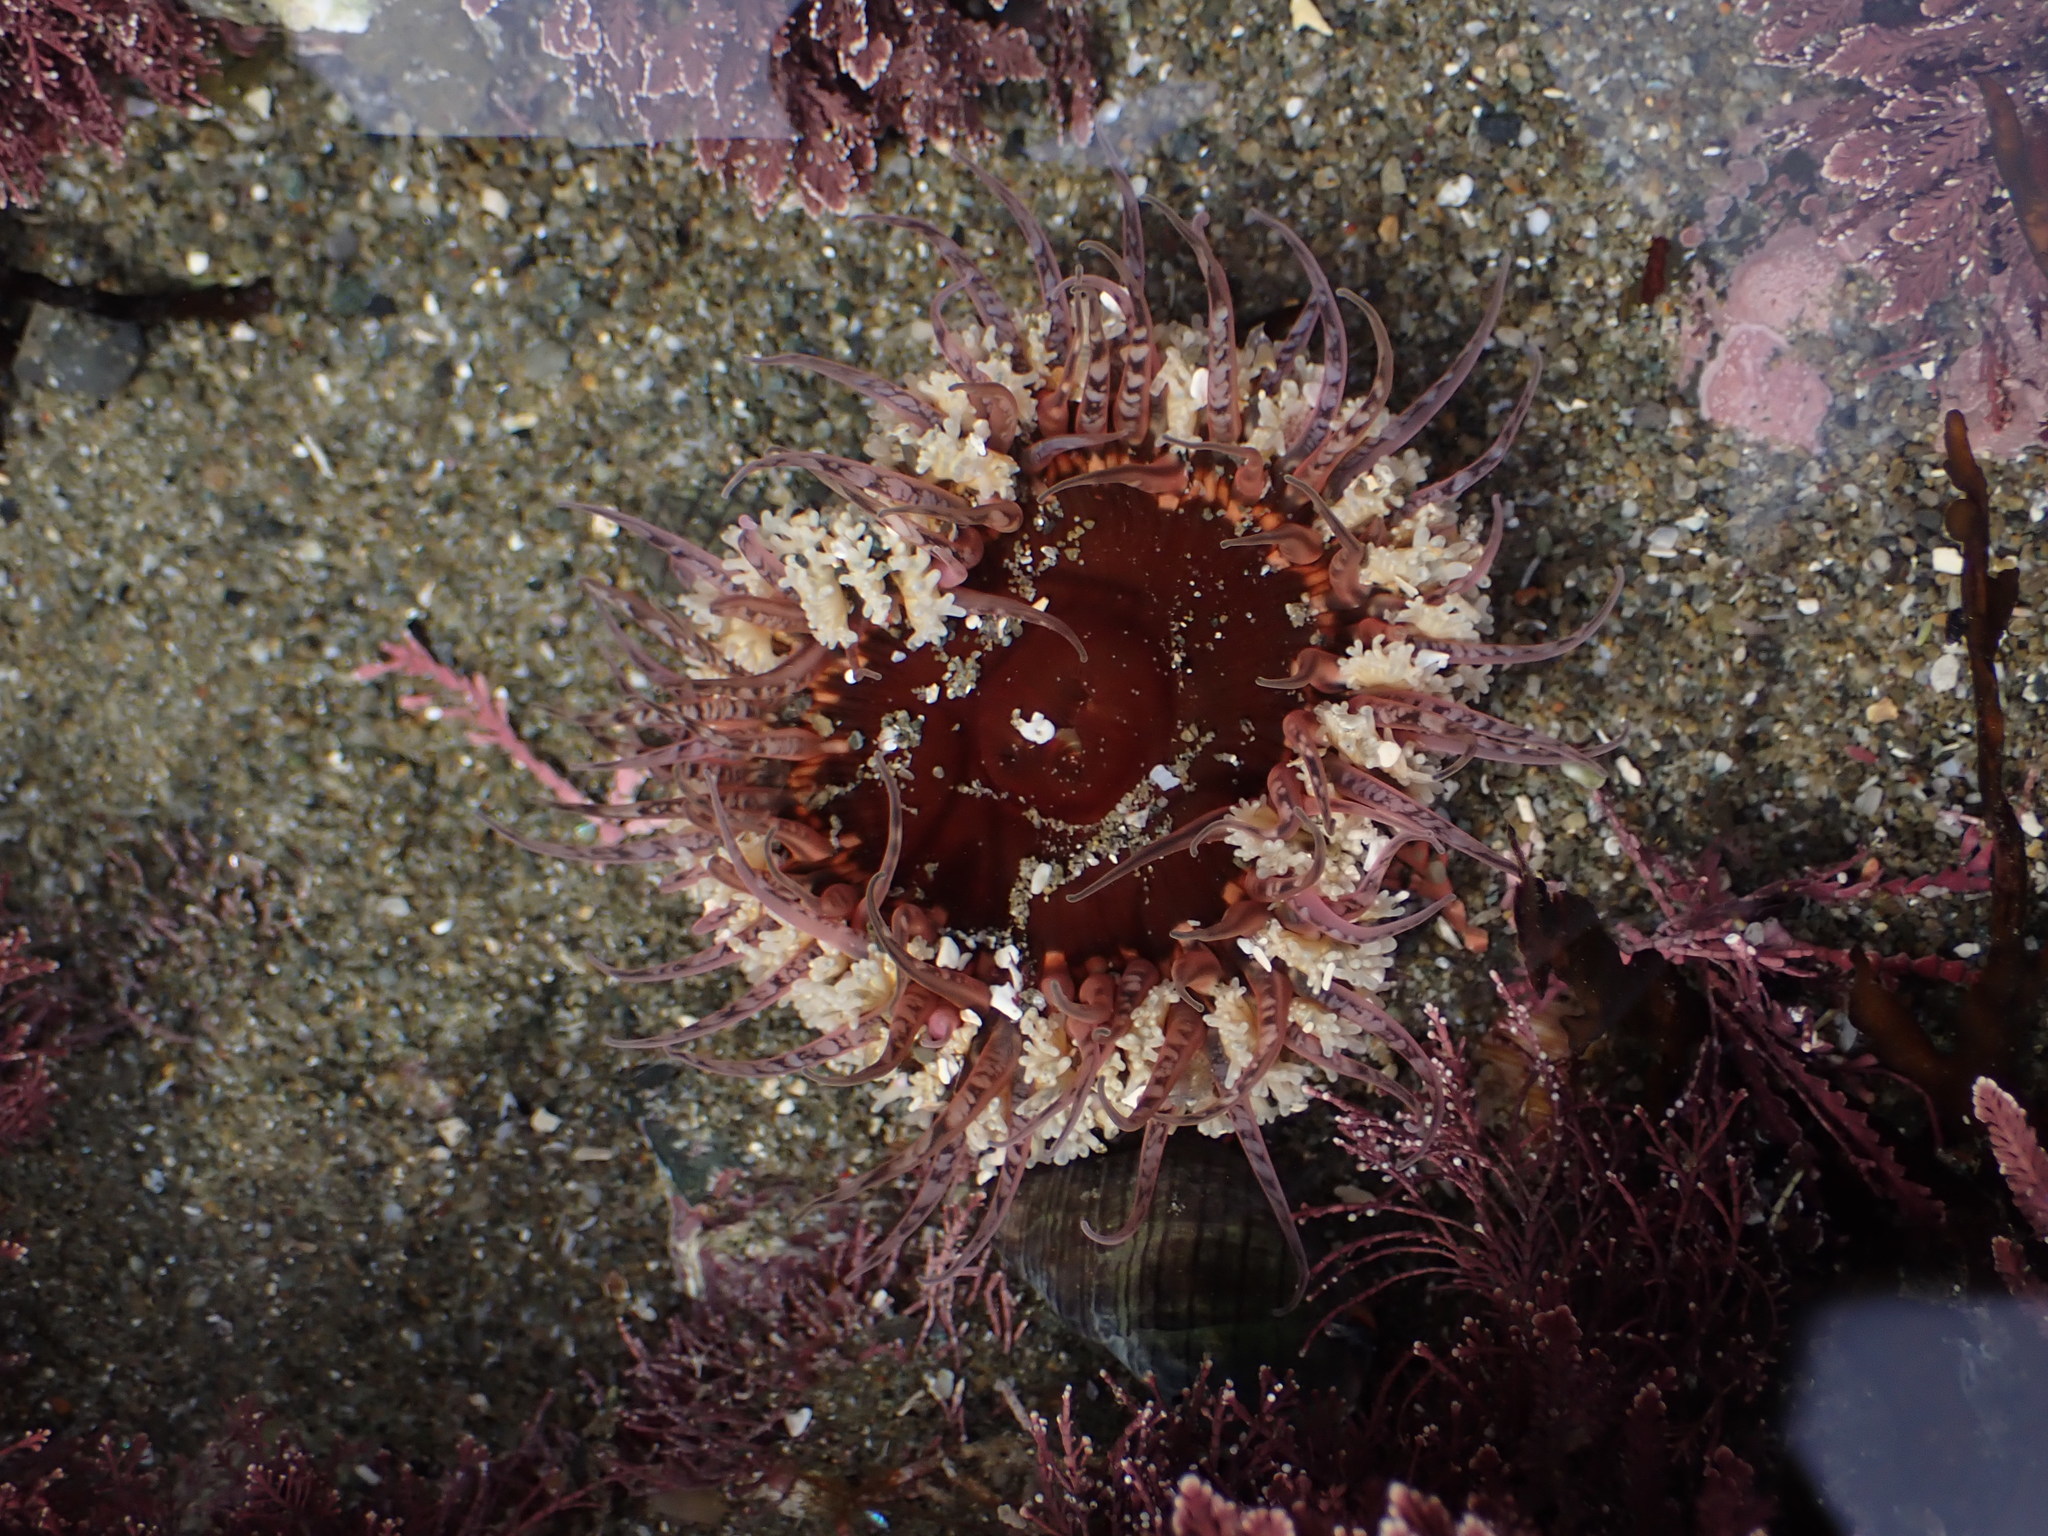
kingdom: Animalia
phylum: Cnidaria
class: Anthozoa
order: Actiniaria
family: Actiniidae
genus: Oulactis
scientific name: Oulactis muscosa
